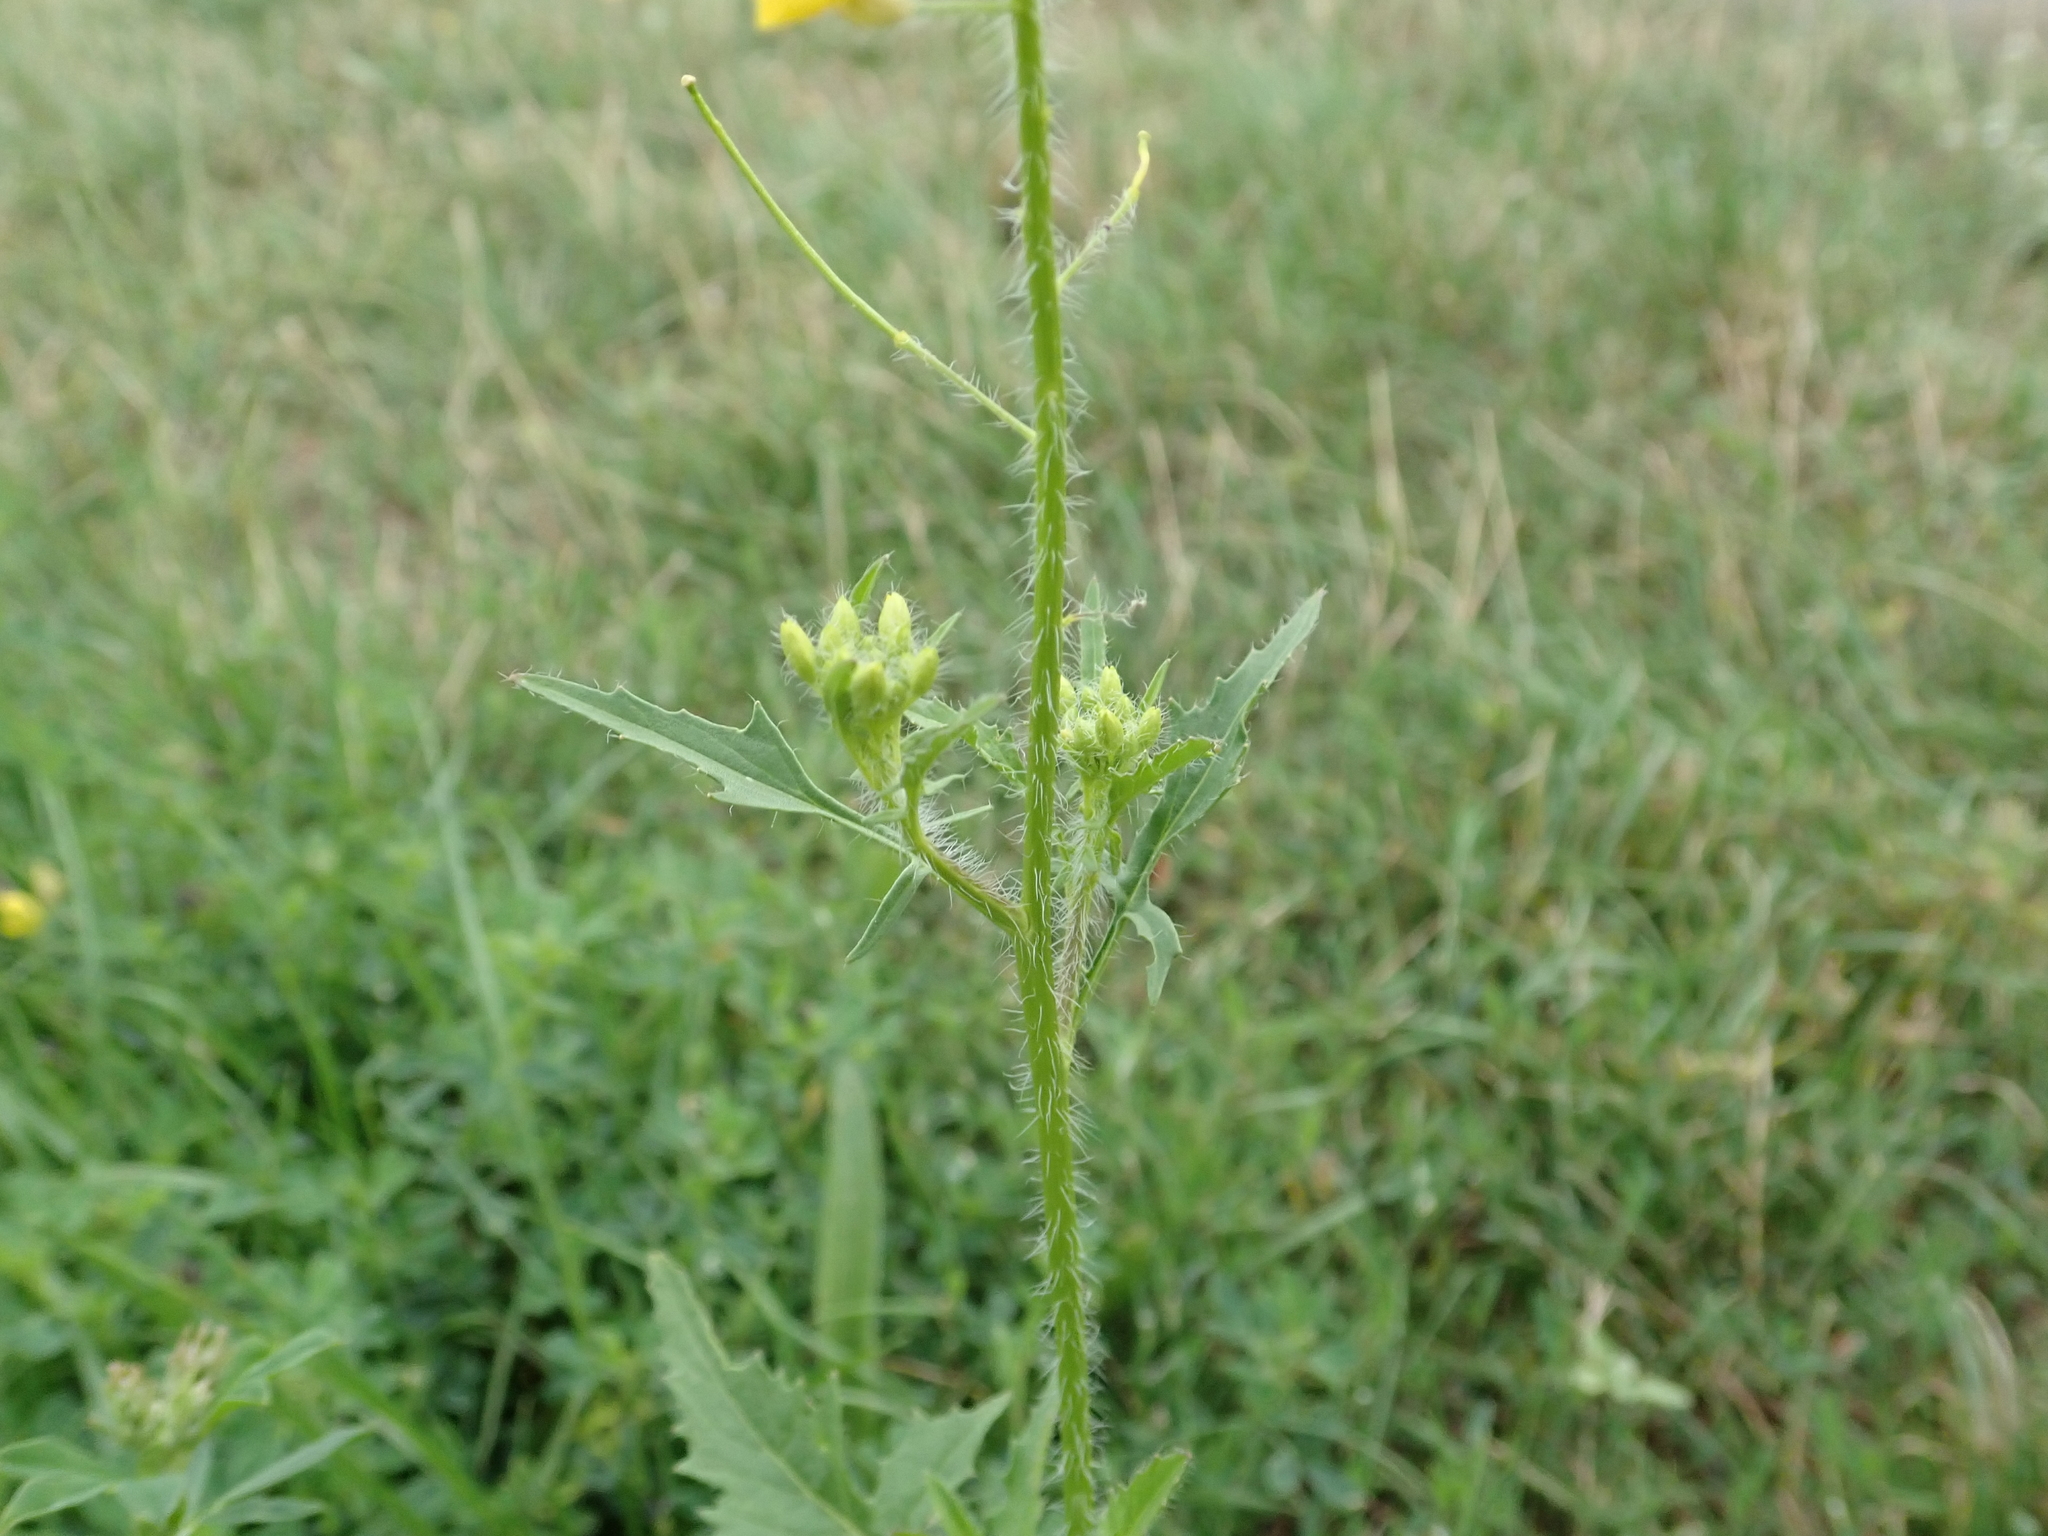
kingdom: Plantae
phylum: Tracheophyta
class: Magnoliopsida
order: Brassicales
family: Brassicaceae
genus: Sisymbrium
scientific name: Sisymbrium loeselii
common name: False london-rocket
